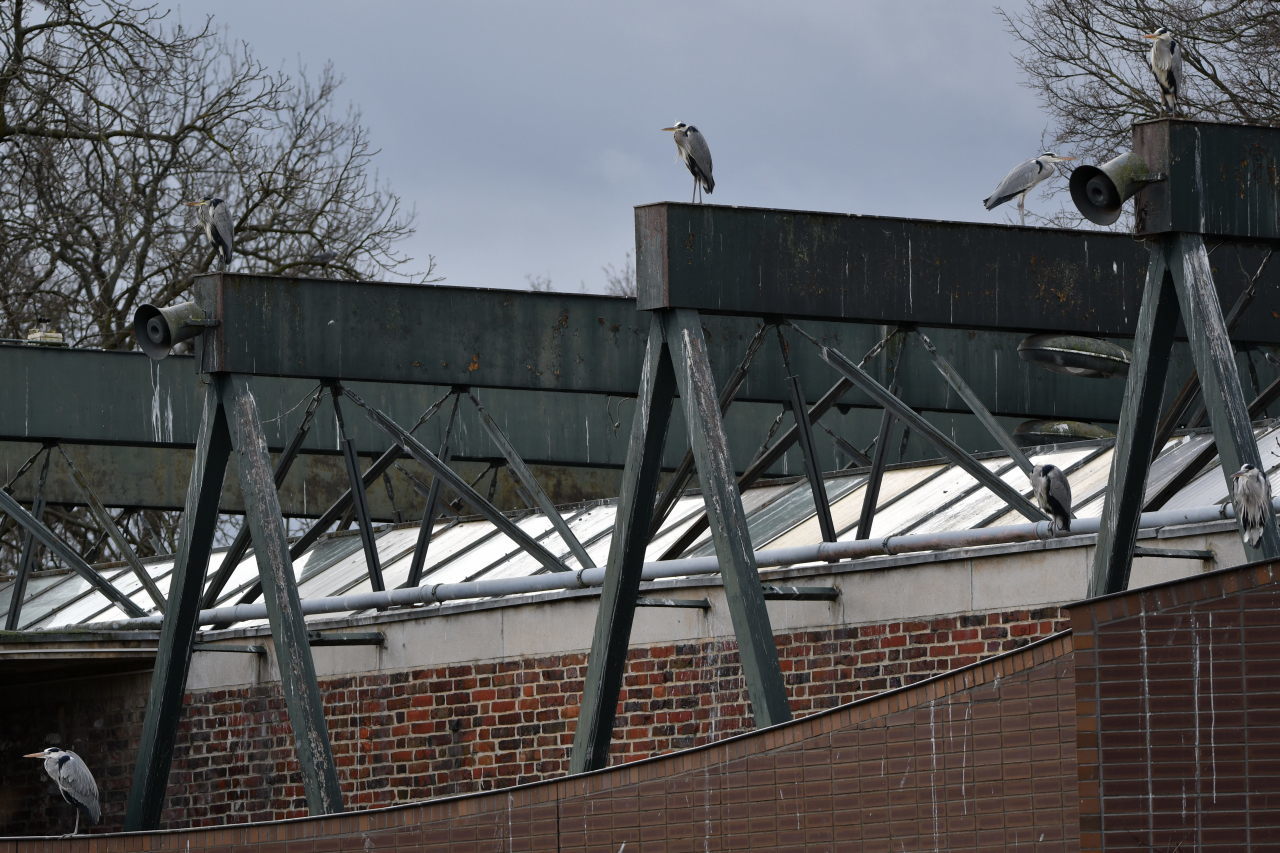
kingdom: Animalia
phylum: Chordata
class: Aves
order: Pelecaniformes
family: Ardeidae
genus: Ardea
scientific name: Ardea cinerea
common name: Grey heron
